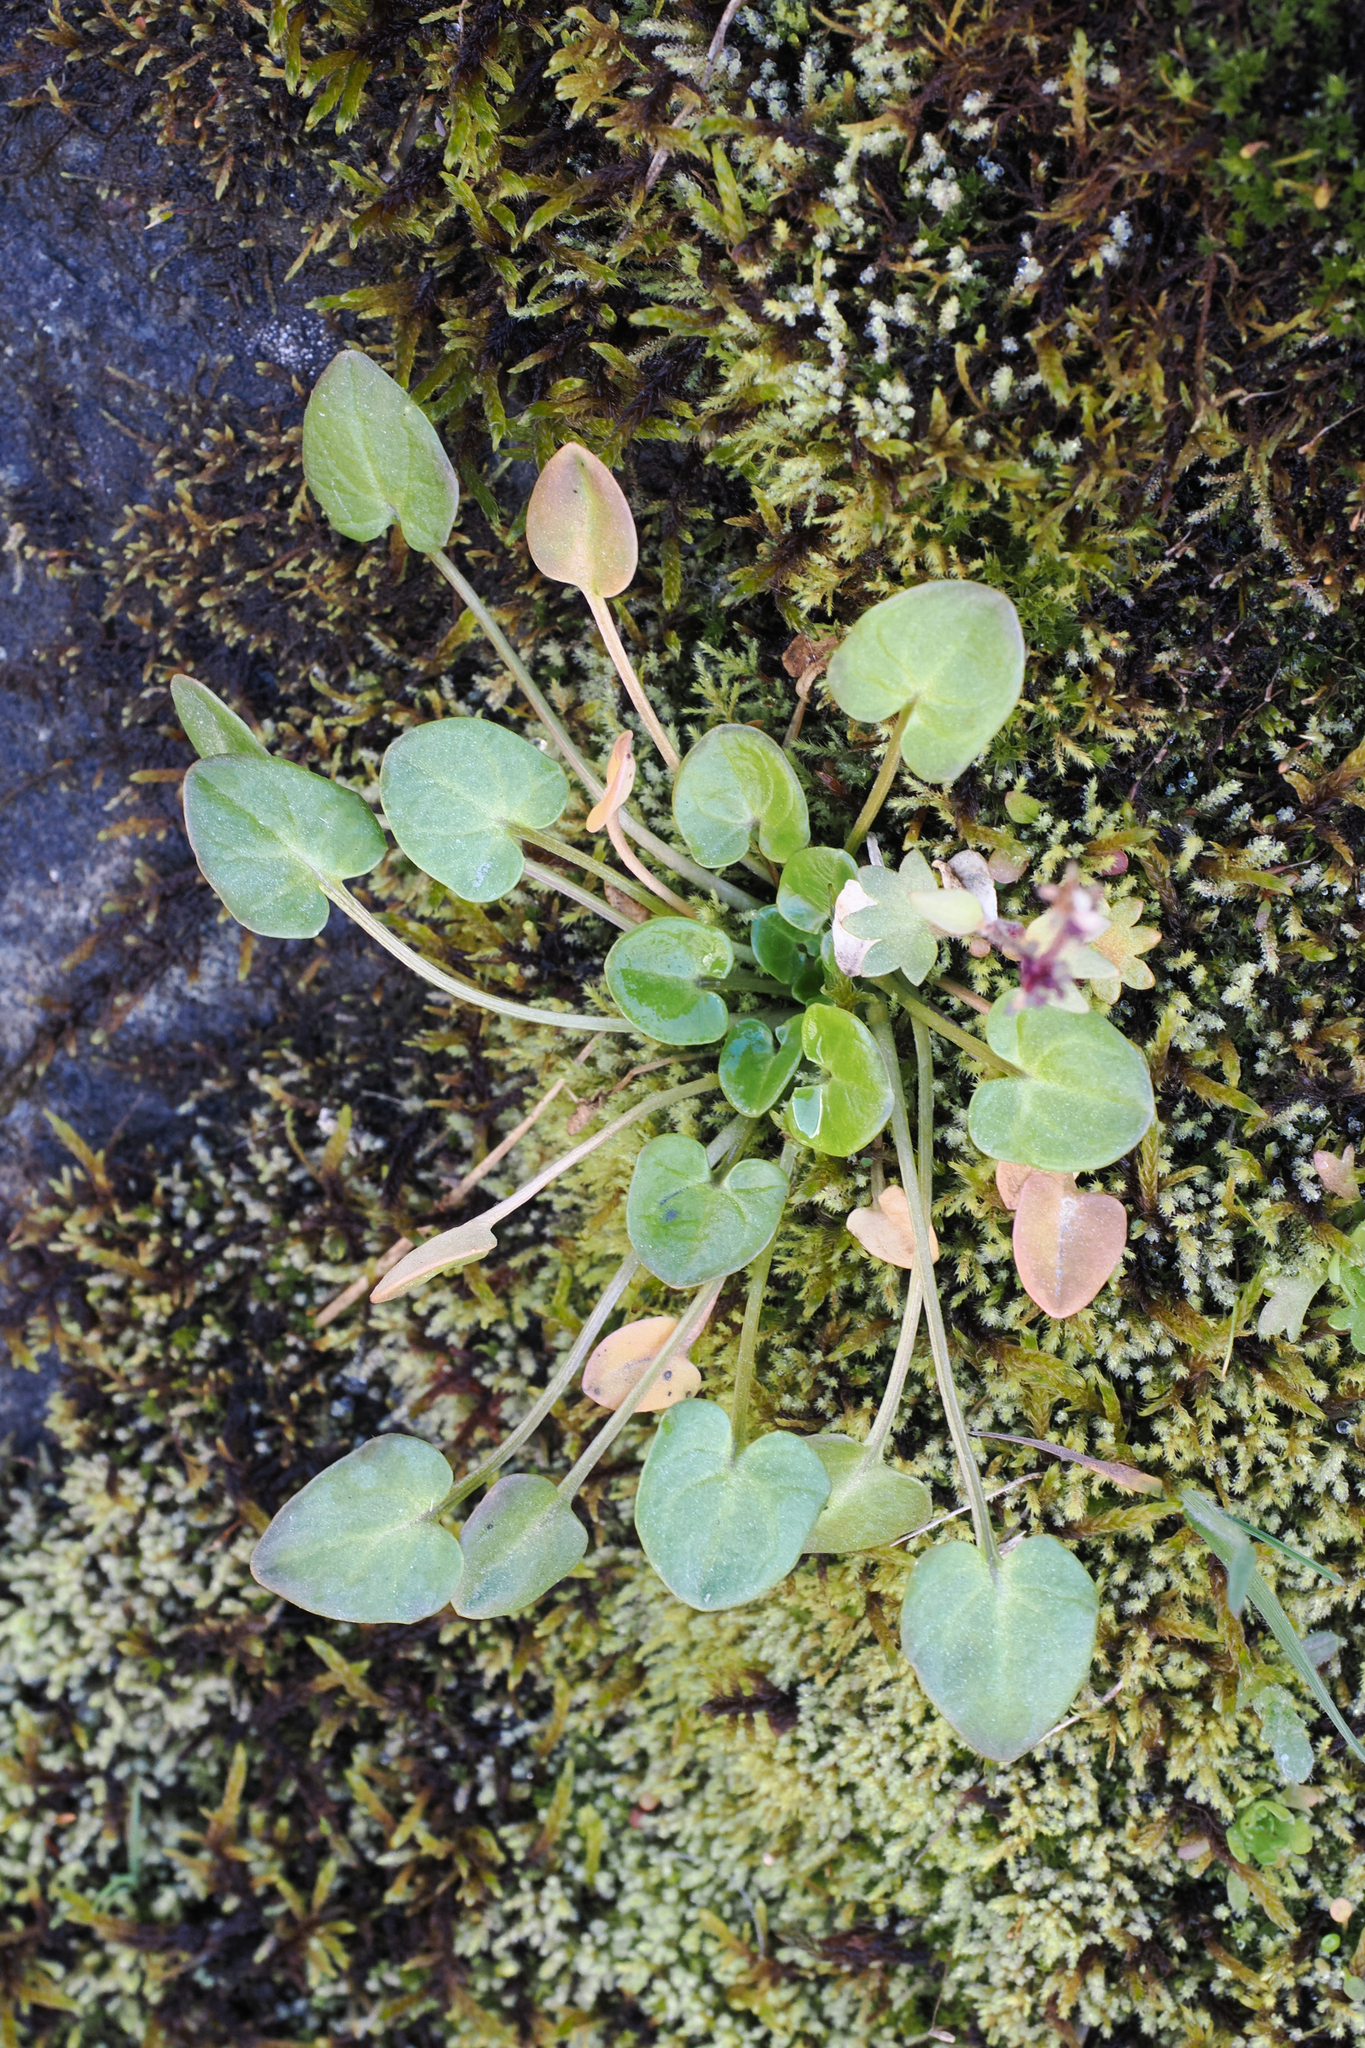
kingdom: Plantae
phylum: Tracheophyta
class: Magnoliopsida
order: Brassicales
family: Brassicaceae
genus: Cochlearia
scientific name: Cochlearia officinalis
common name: Scurvy-grass
